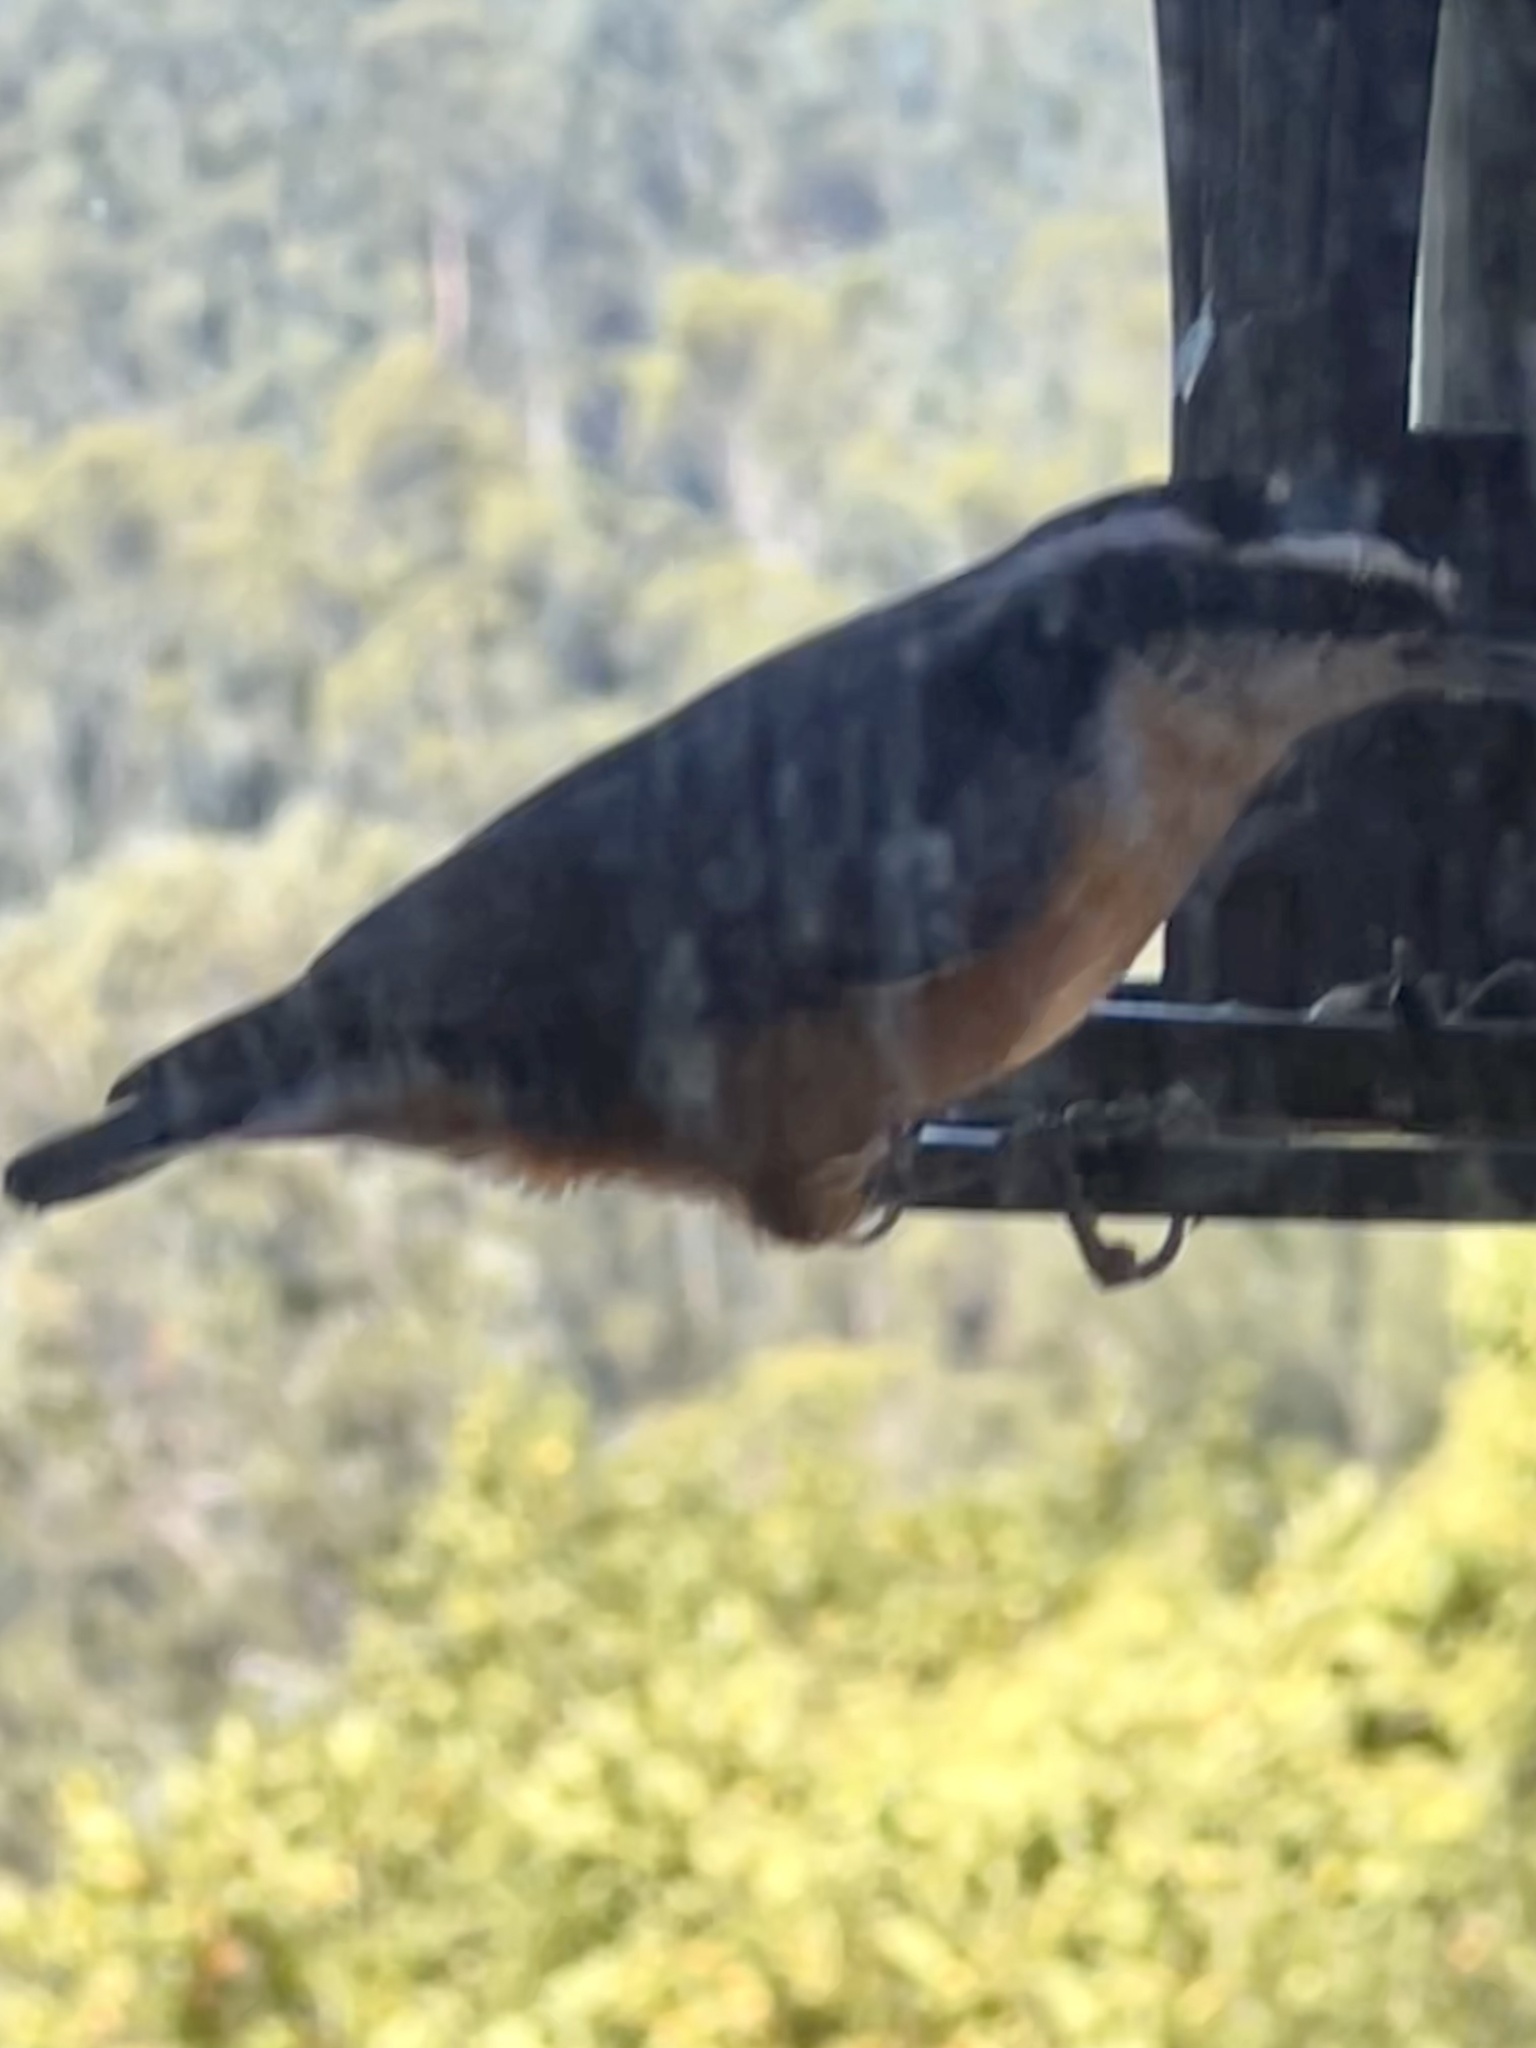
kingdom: Animalia
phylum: Chordata
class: Aves
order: Passeriformes
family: Sittidae
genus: Sitta
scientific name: Sitta canadensis
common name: Red-breasted nuthatch
